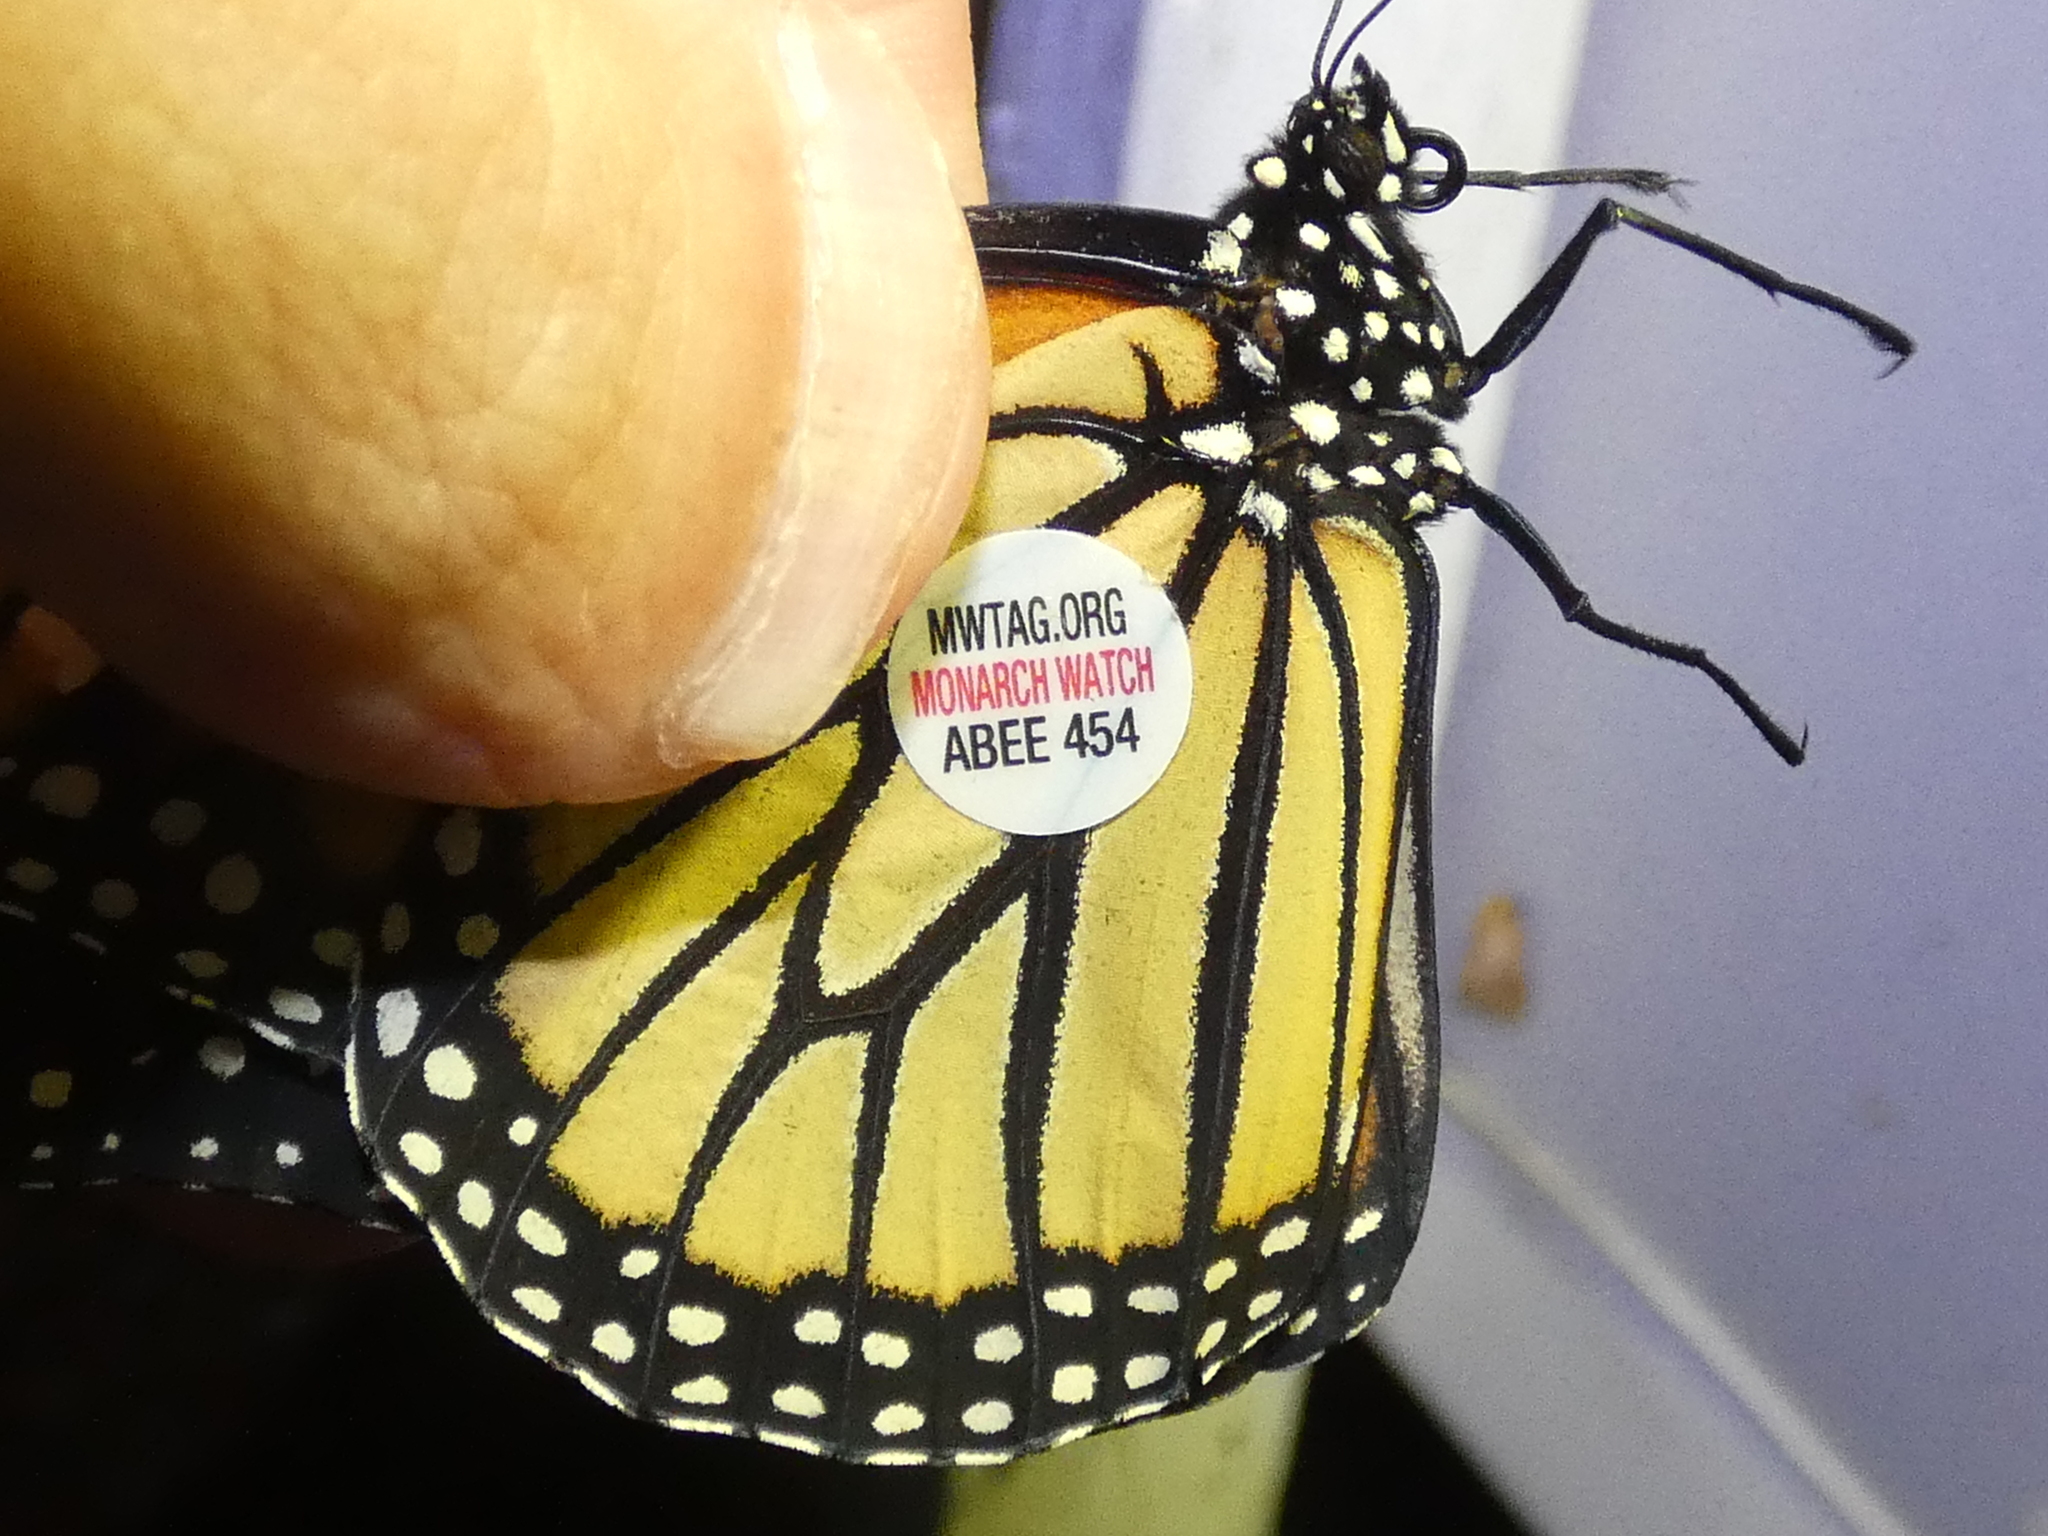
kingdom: Animalia
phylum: Arthropoda
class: Insecta
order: Lepidoptera
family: Nymphalidae
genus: Danaus
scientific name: Danaus plexippus
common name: Monarch
